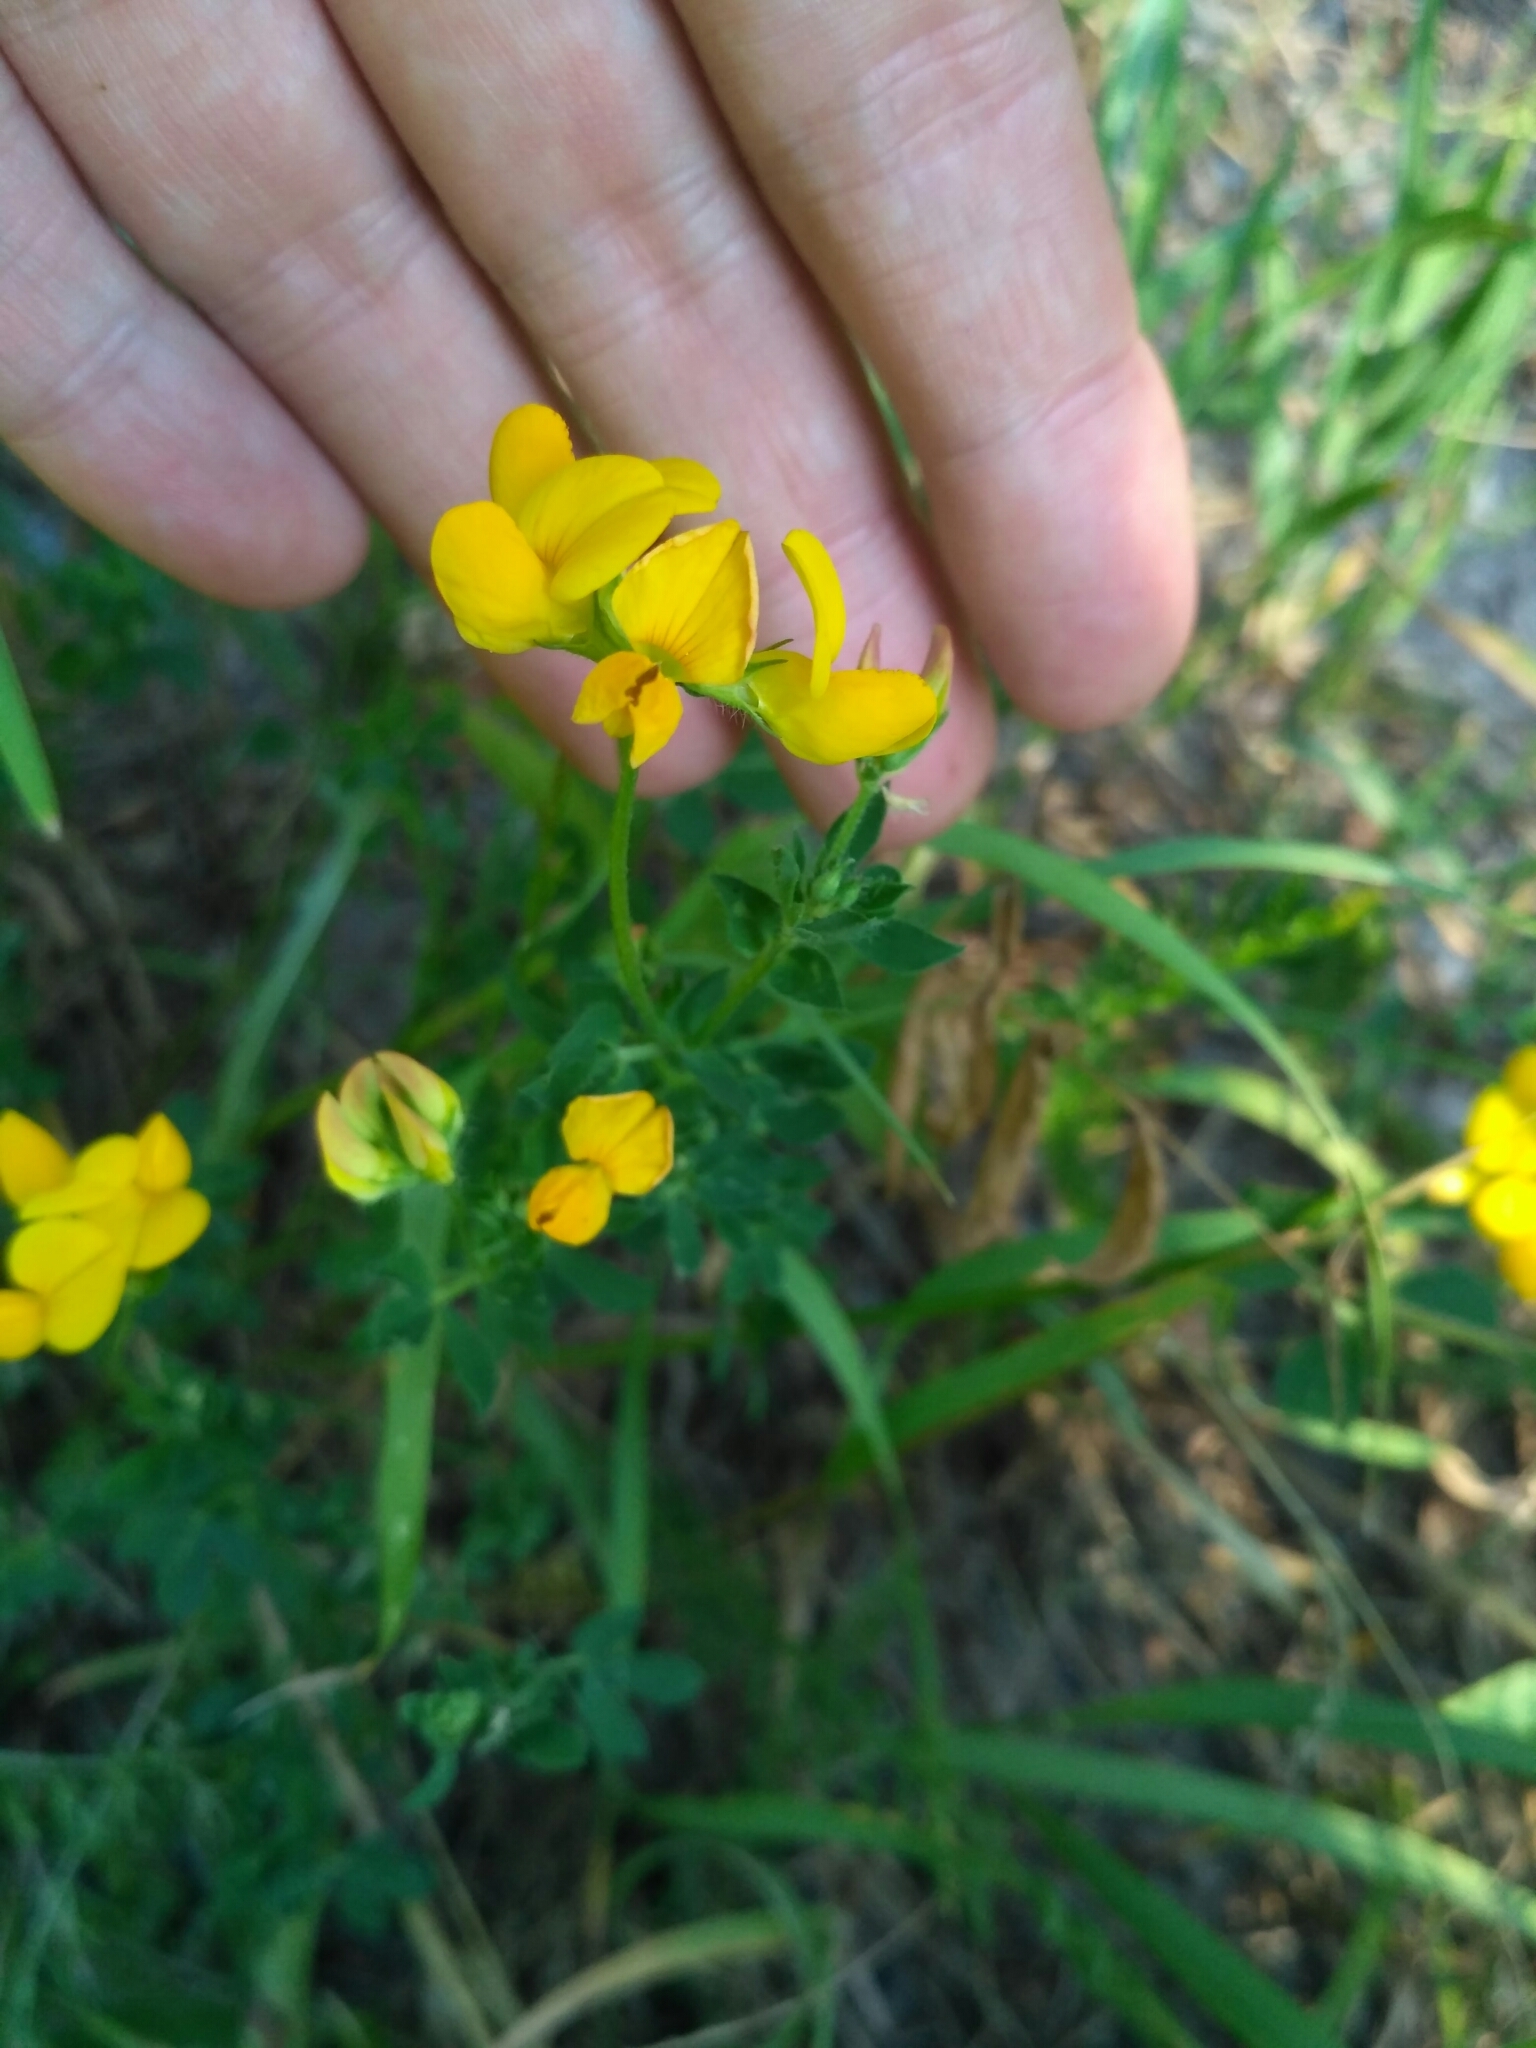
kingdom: Plantae
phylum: Tracheophyta
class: Magnoliopsida
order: Fabales
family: Fabaceae
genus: Lotus
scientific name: Lotus corniculatus
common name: Common bird's-foot-trefoil
